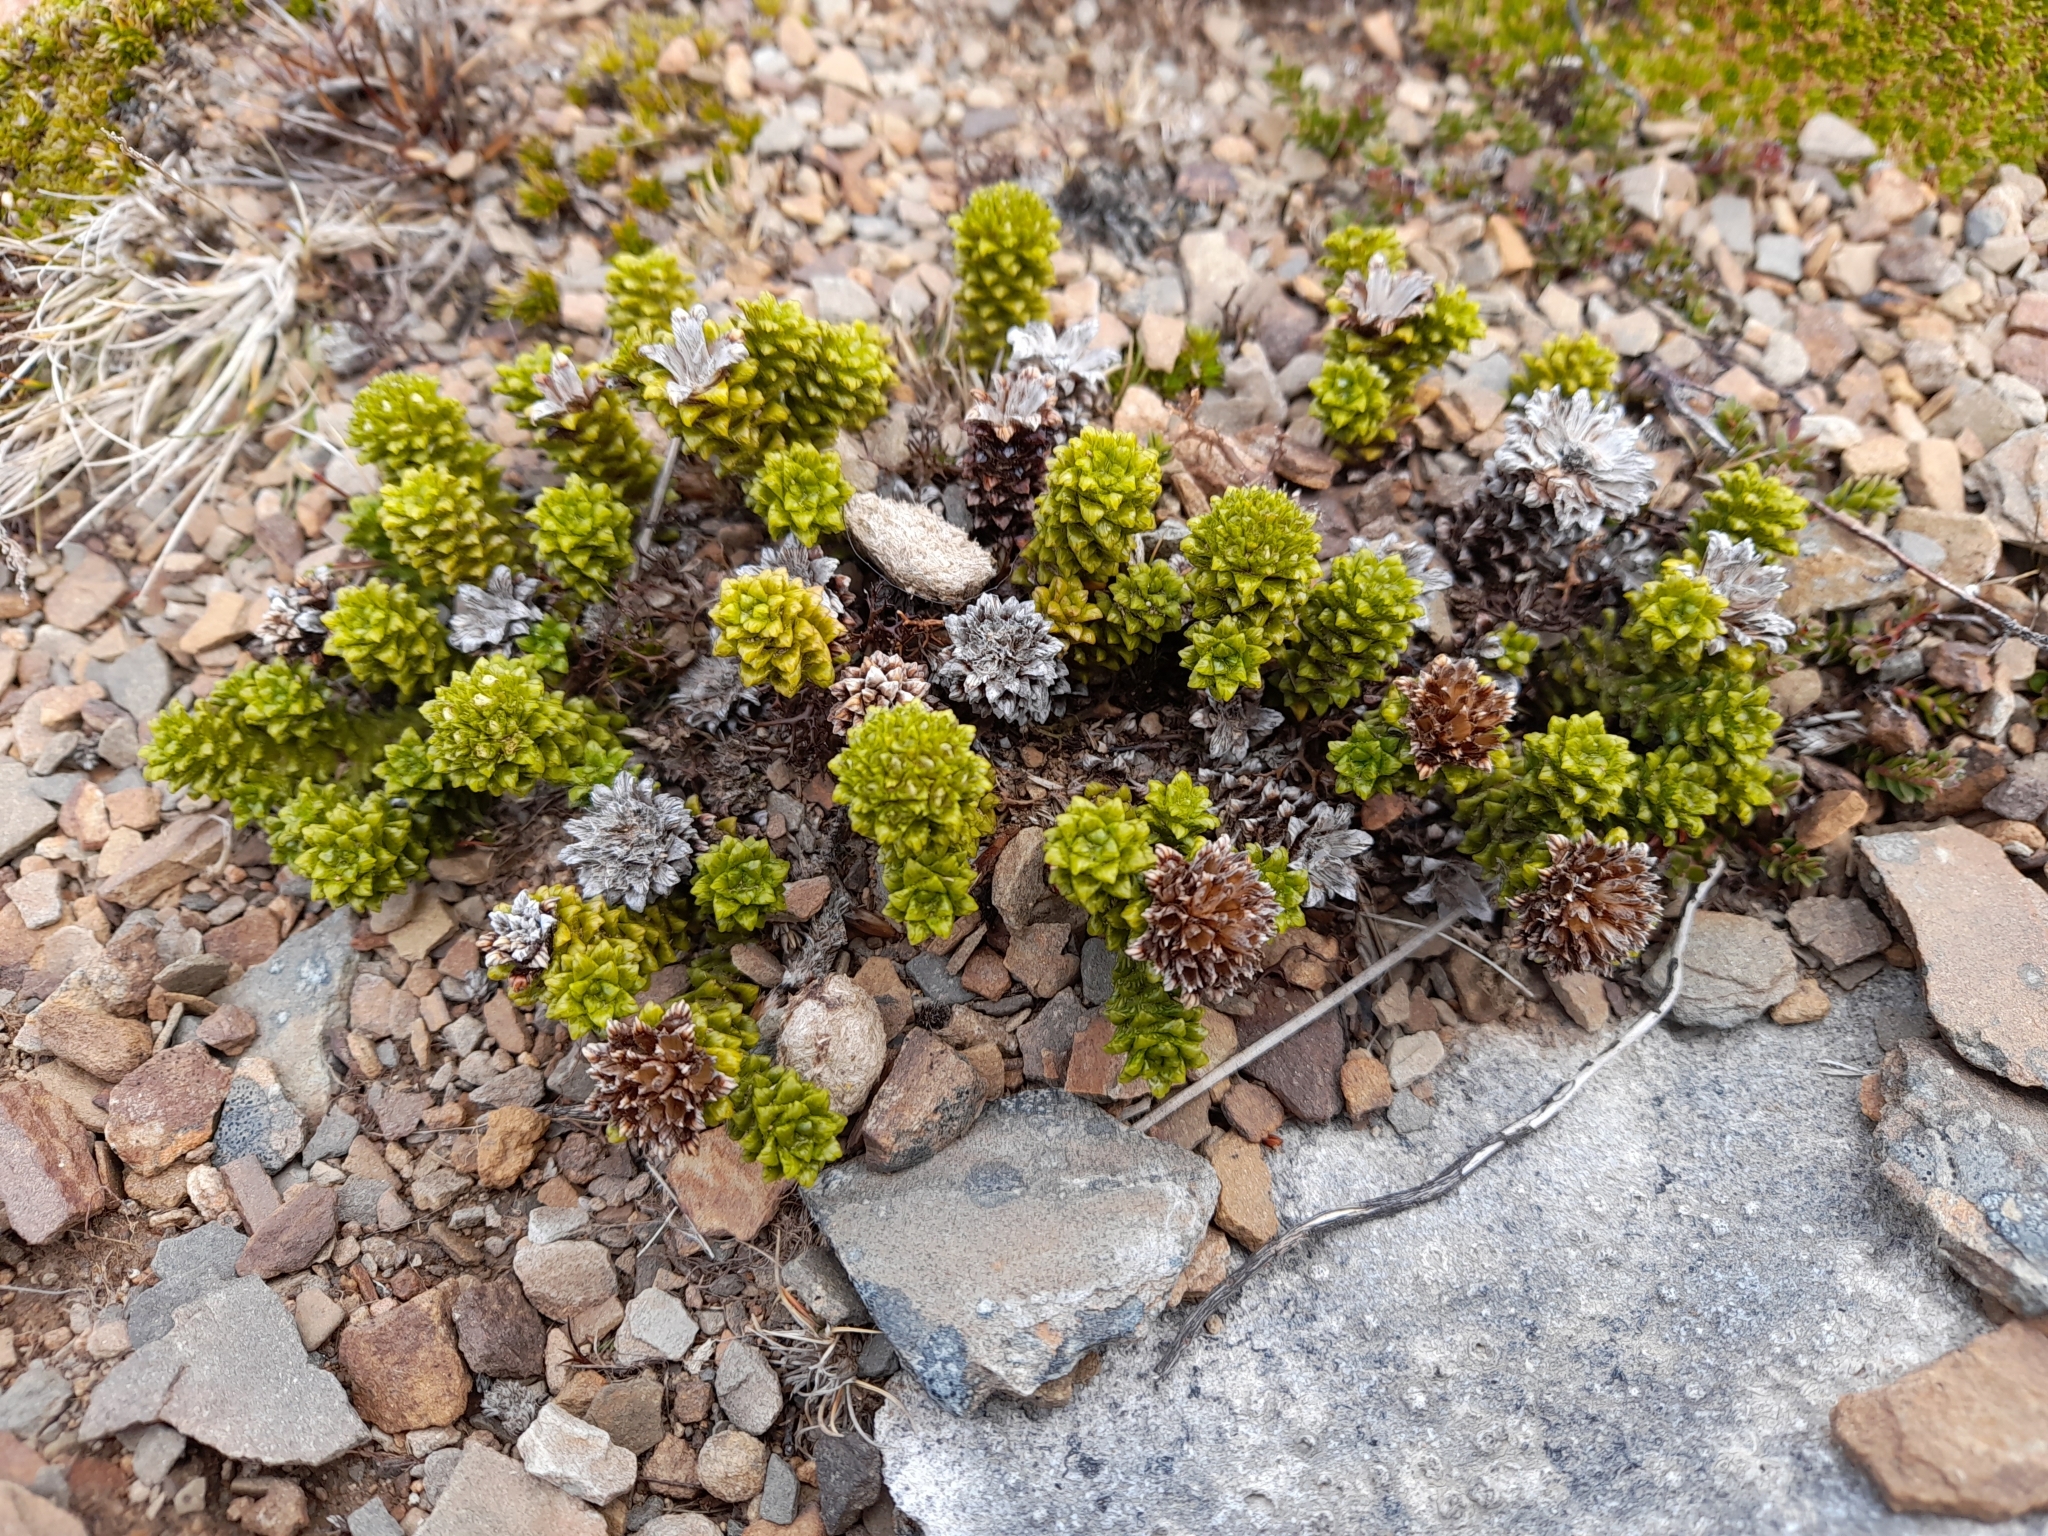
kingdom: Plantae
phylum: Tracheophyta
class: Magnoliopsida
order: Asterales
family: Asteraceae
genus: Nassauvia
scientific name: Nassauvia falklandica
